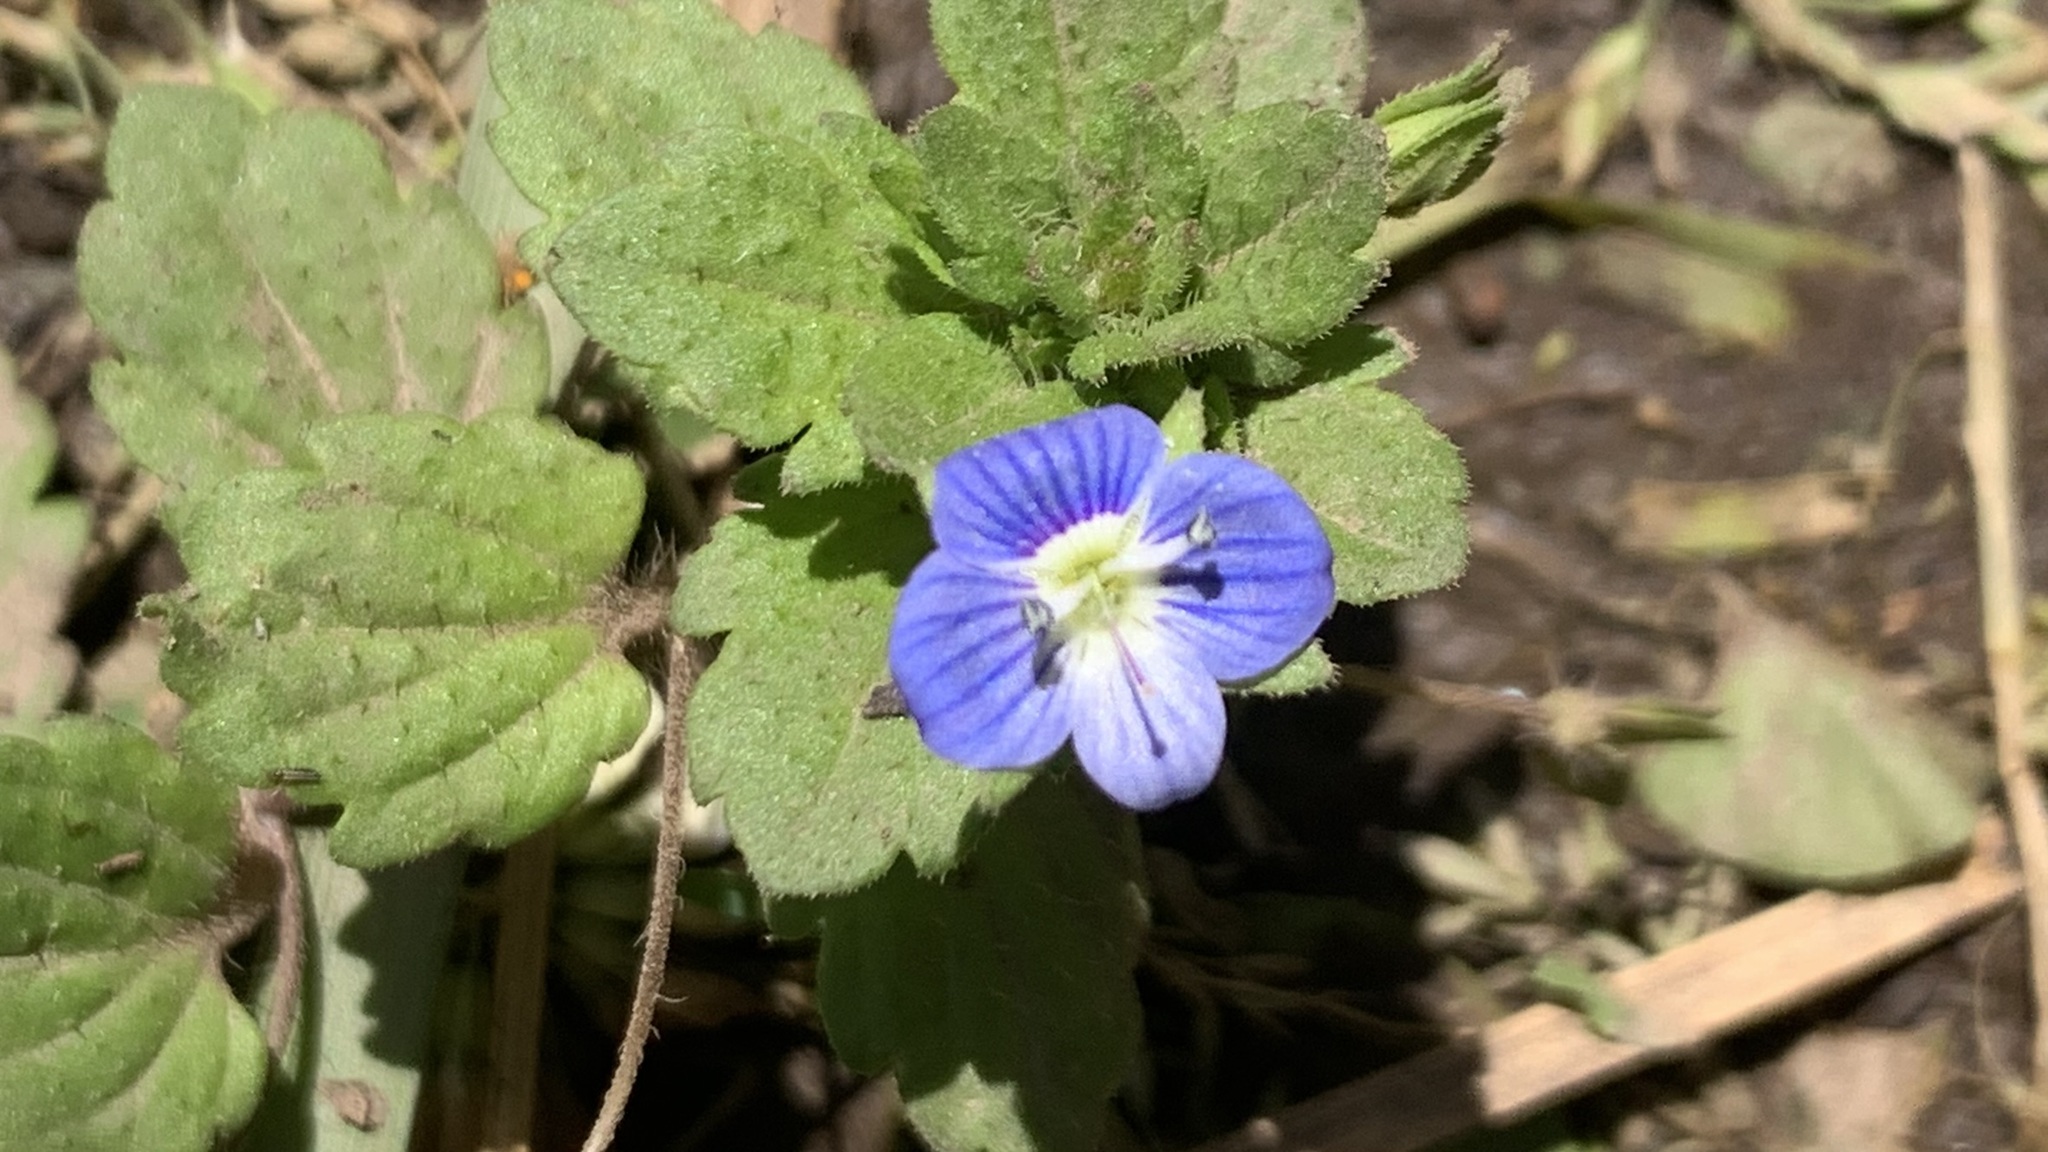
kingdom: Plantae
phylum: Tracheophyta
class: Magnoliopsida
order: Lamiales
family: Plantaginaceae
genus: Veronica
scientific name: Veronica persica
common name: Common field-speedwell
